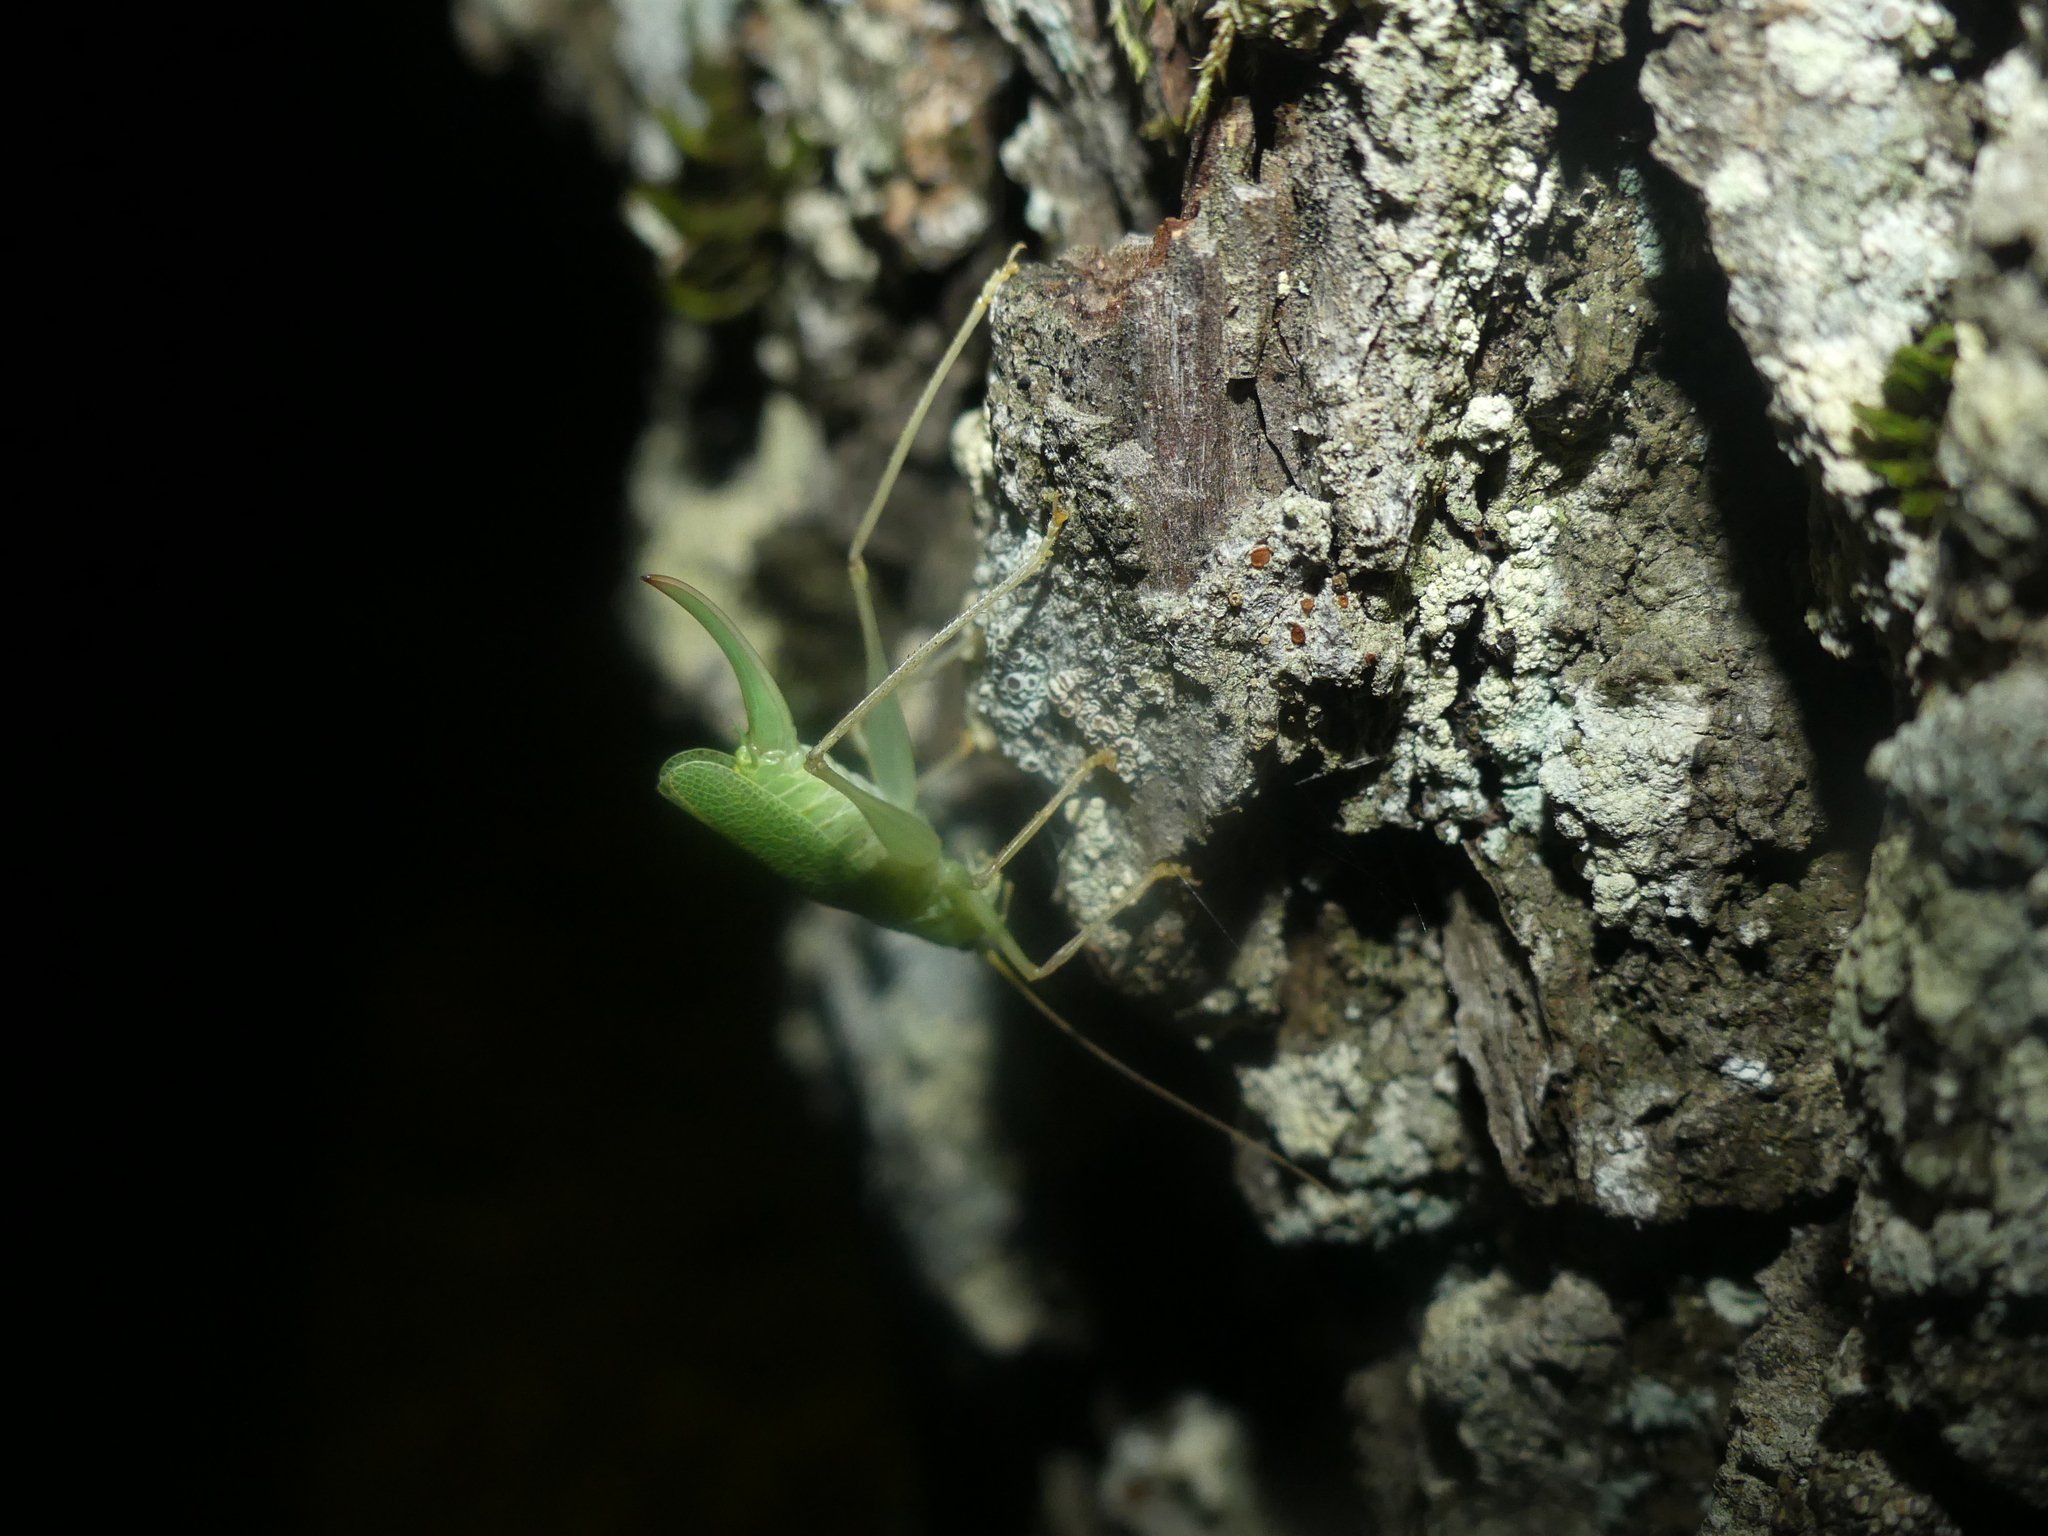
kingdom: Animalia
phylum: Arthropoda
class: Insecta
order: Orthoptera
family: Tettigoniidae
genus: Meconema
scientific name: Meconema thalassinum
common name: Oak bush-cricket
